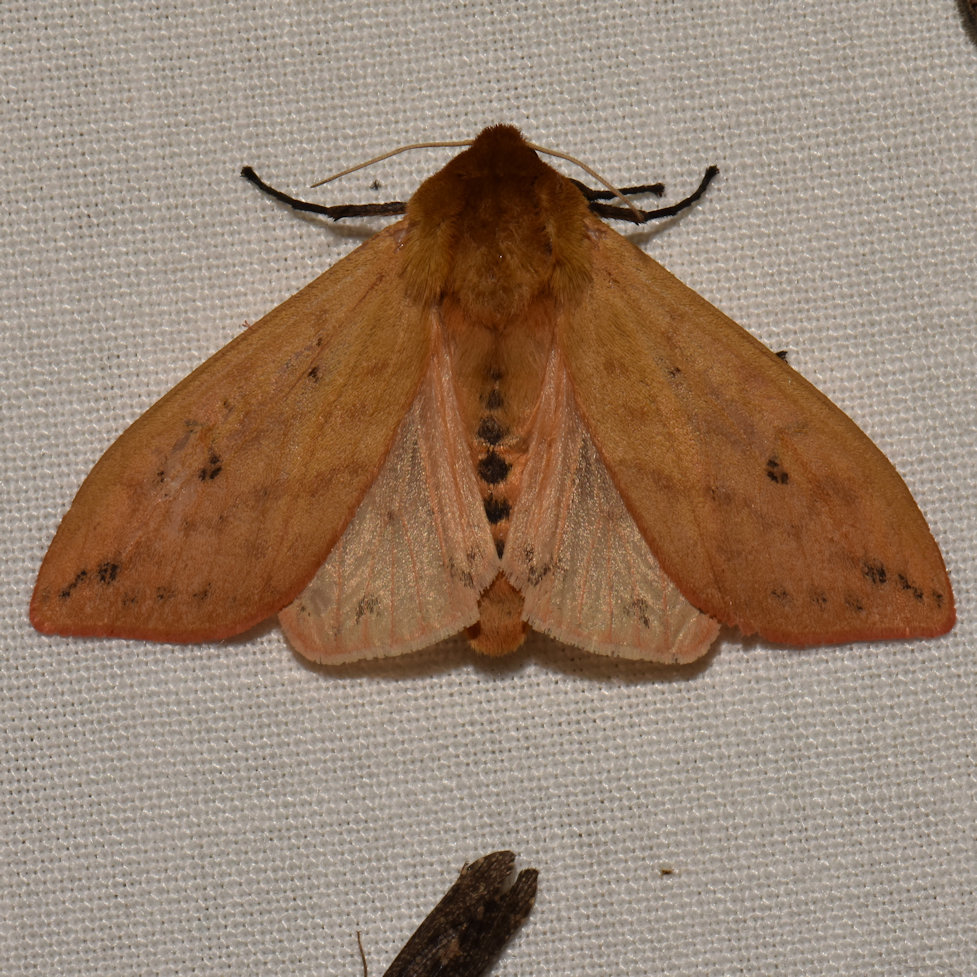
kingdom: Animalia
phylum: Arthropoda
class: Insecta
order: Lepidoptera
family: Erebidae
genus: Pyrrharctia
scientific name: Pyrrharctia isabella
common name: Isabella tiger moth
